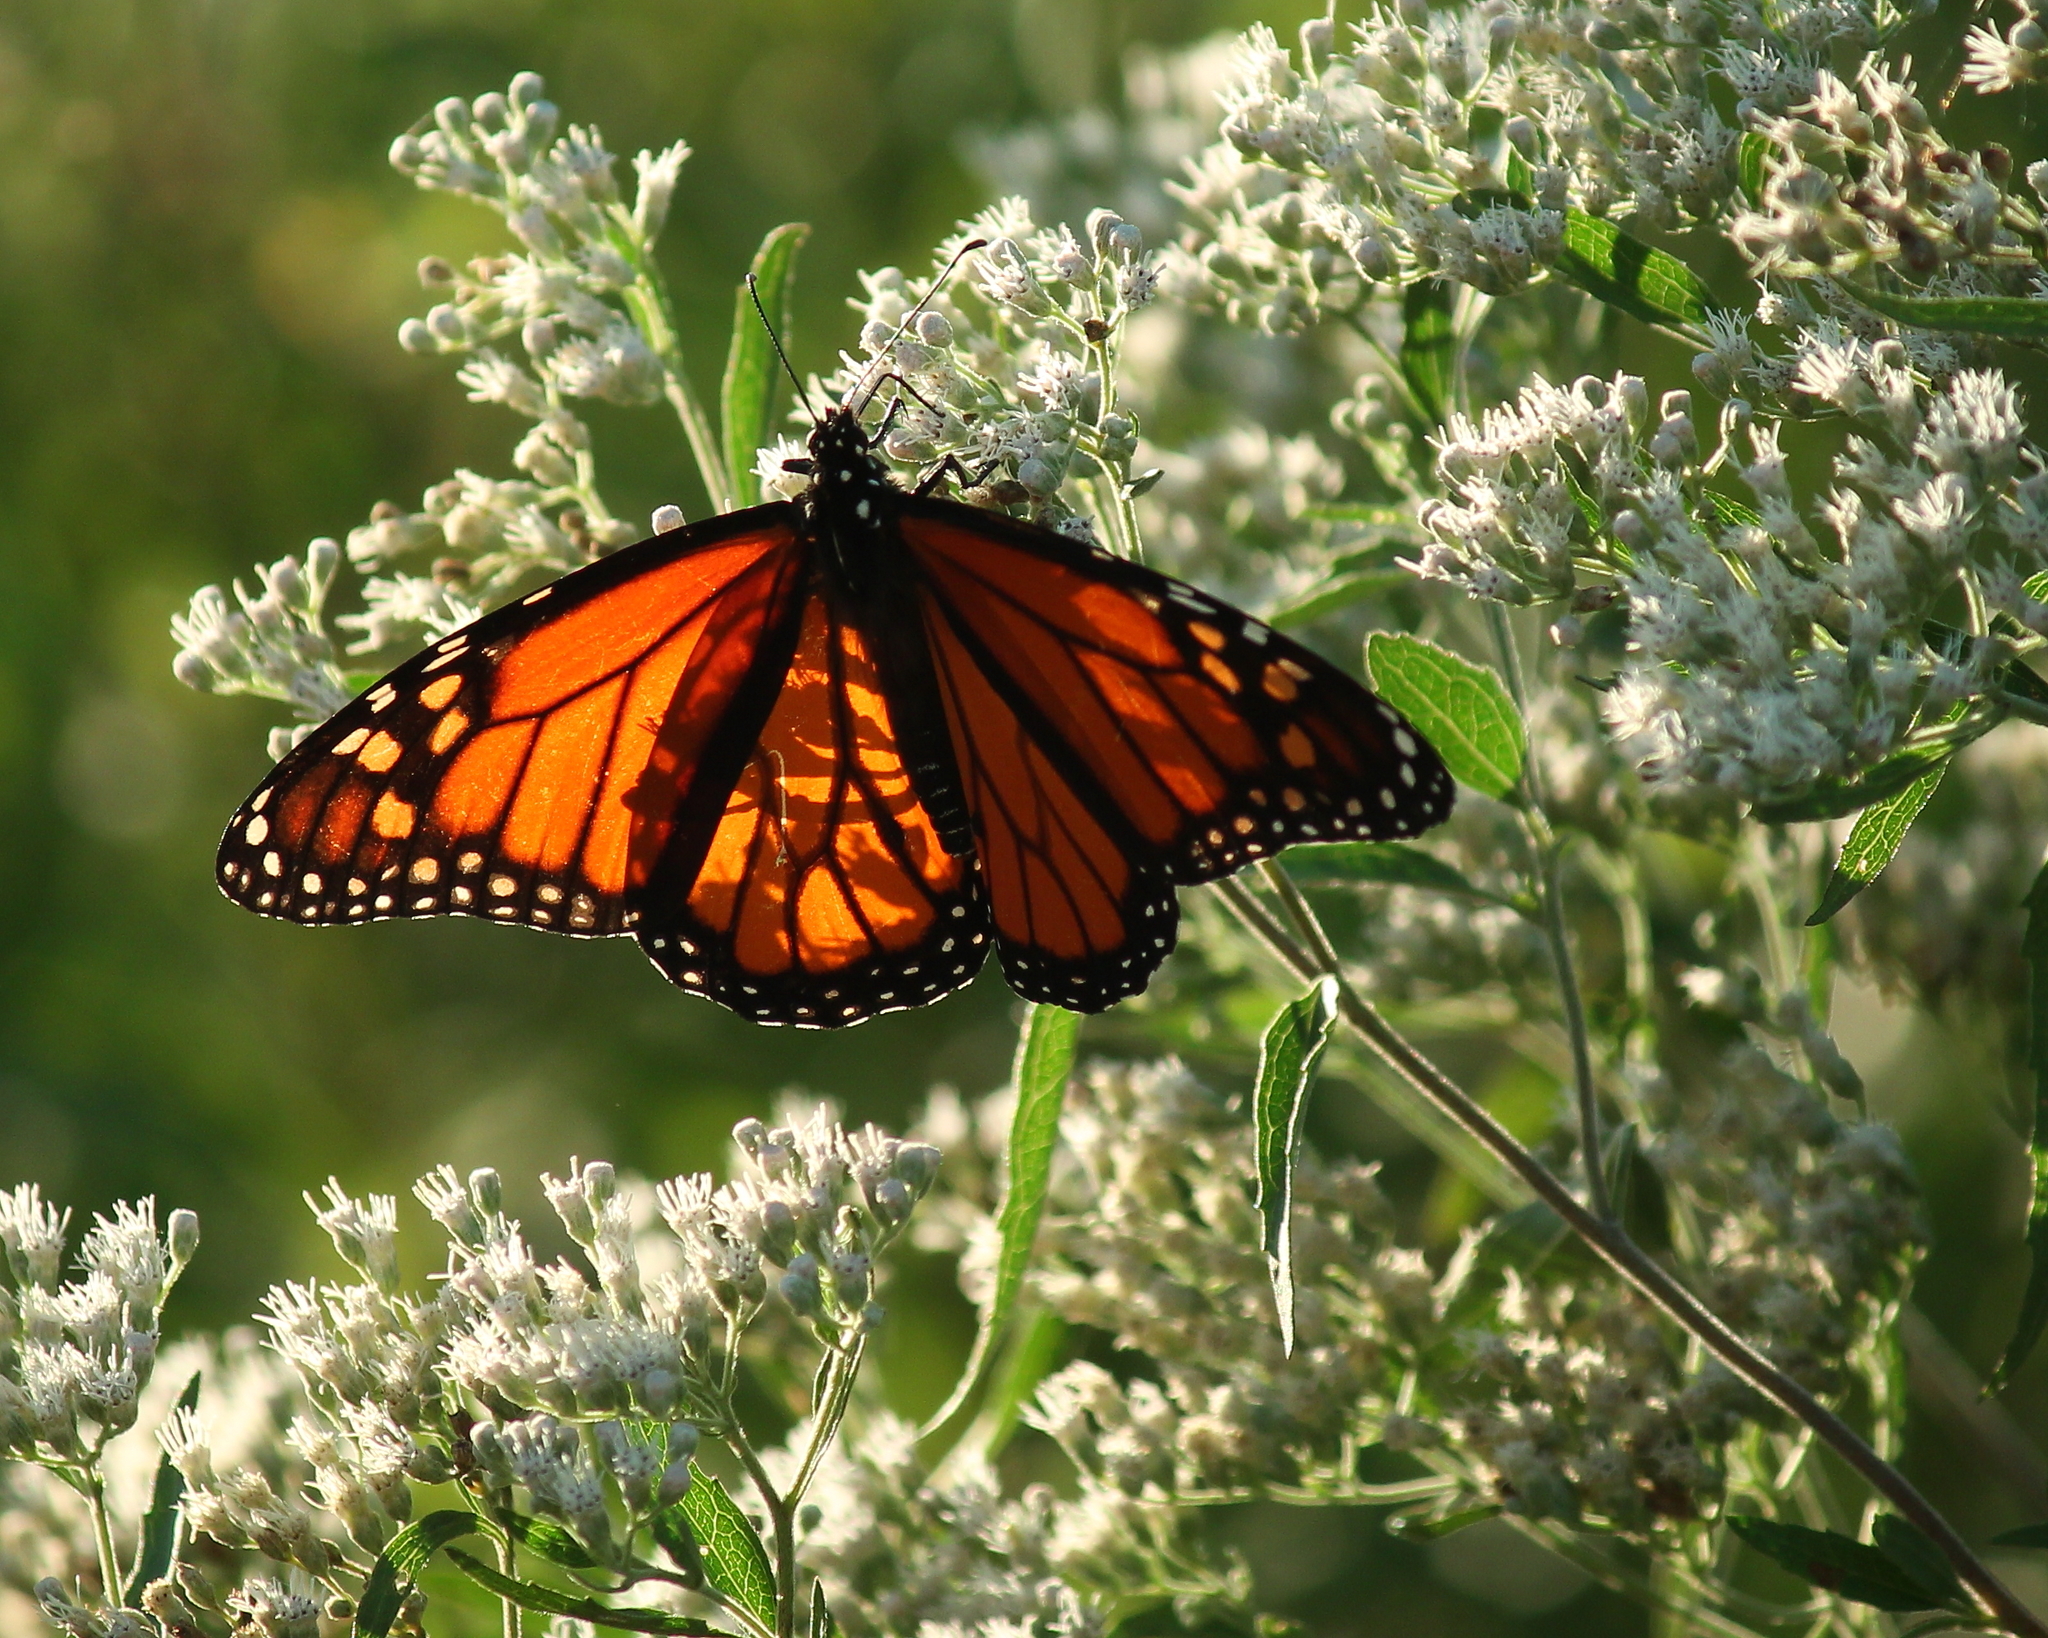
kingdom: Animalia
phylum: Arthropoda
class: Insecta
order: Lepidoptera
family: Nymphalidae
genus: Danaus
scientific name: Danaus plexippus
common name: Monarch
